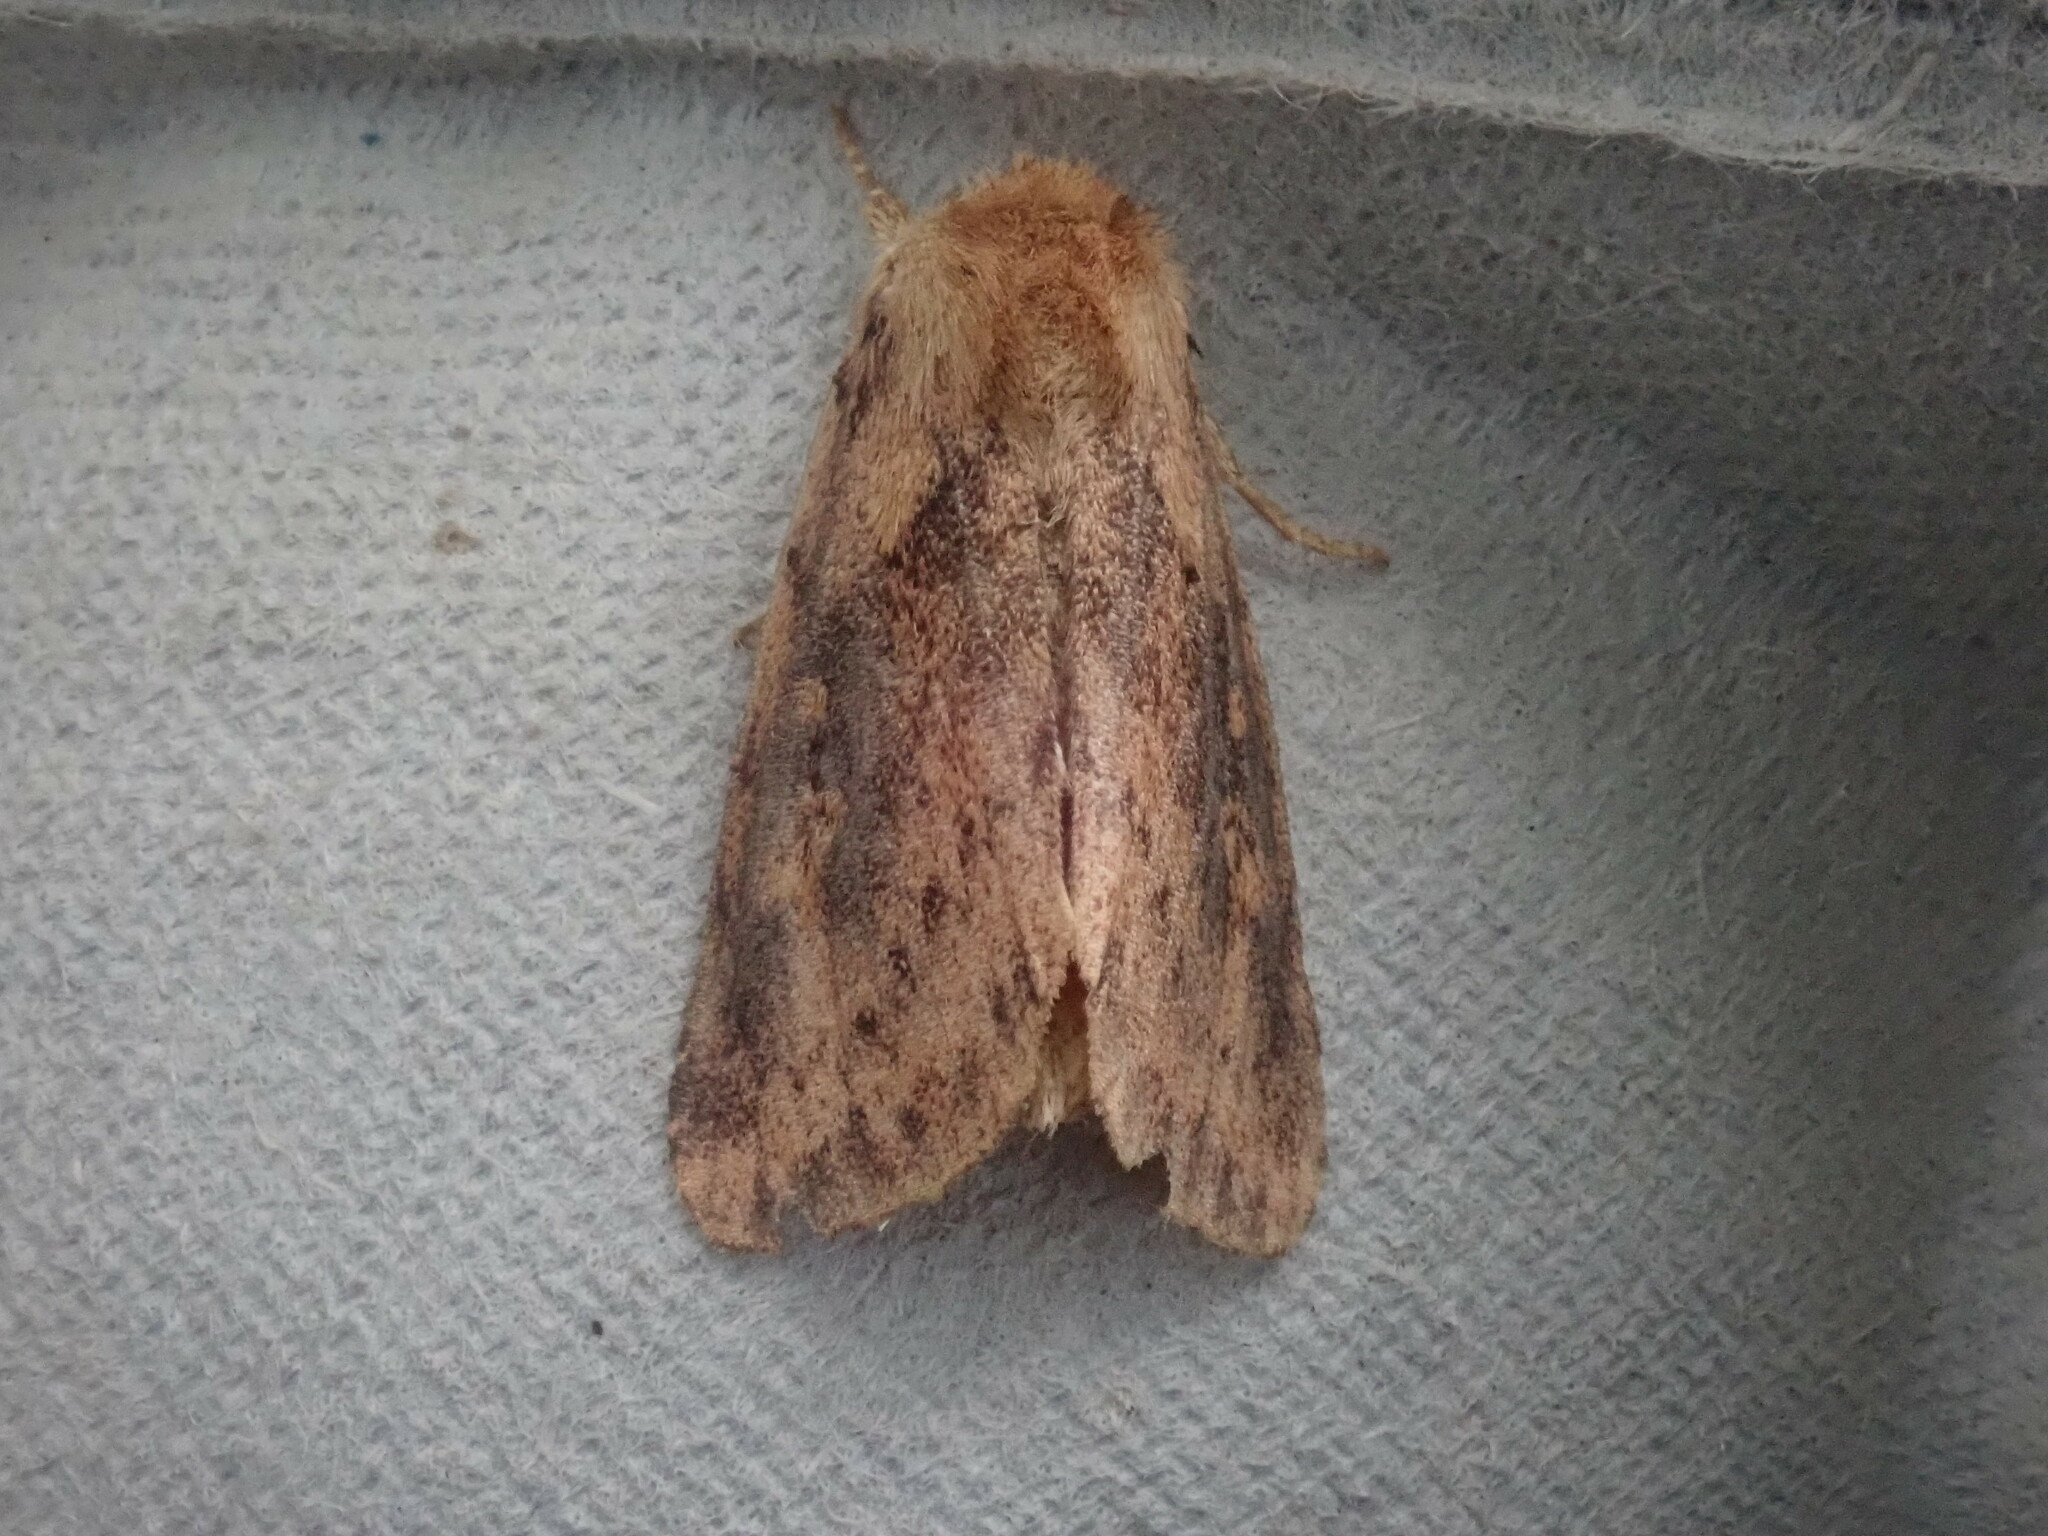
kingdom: Animalia
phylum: Arthropoda
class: Insecta
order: Lepidoptera
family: Noctuidae
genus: Bellura
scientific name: Bellura vulnifica
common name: Black-tailed diver moth
